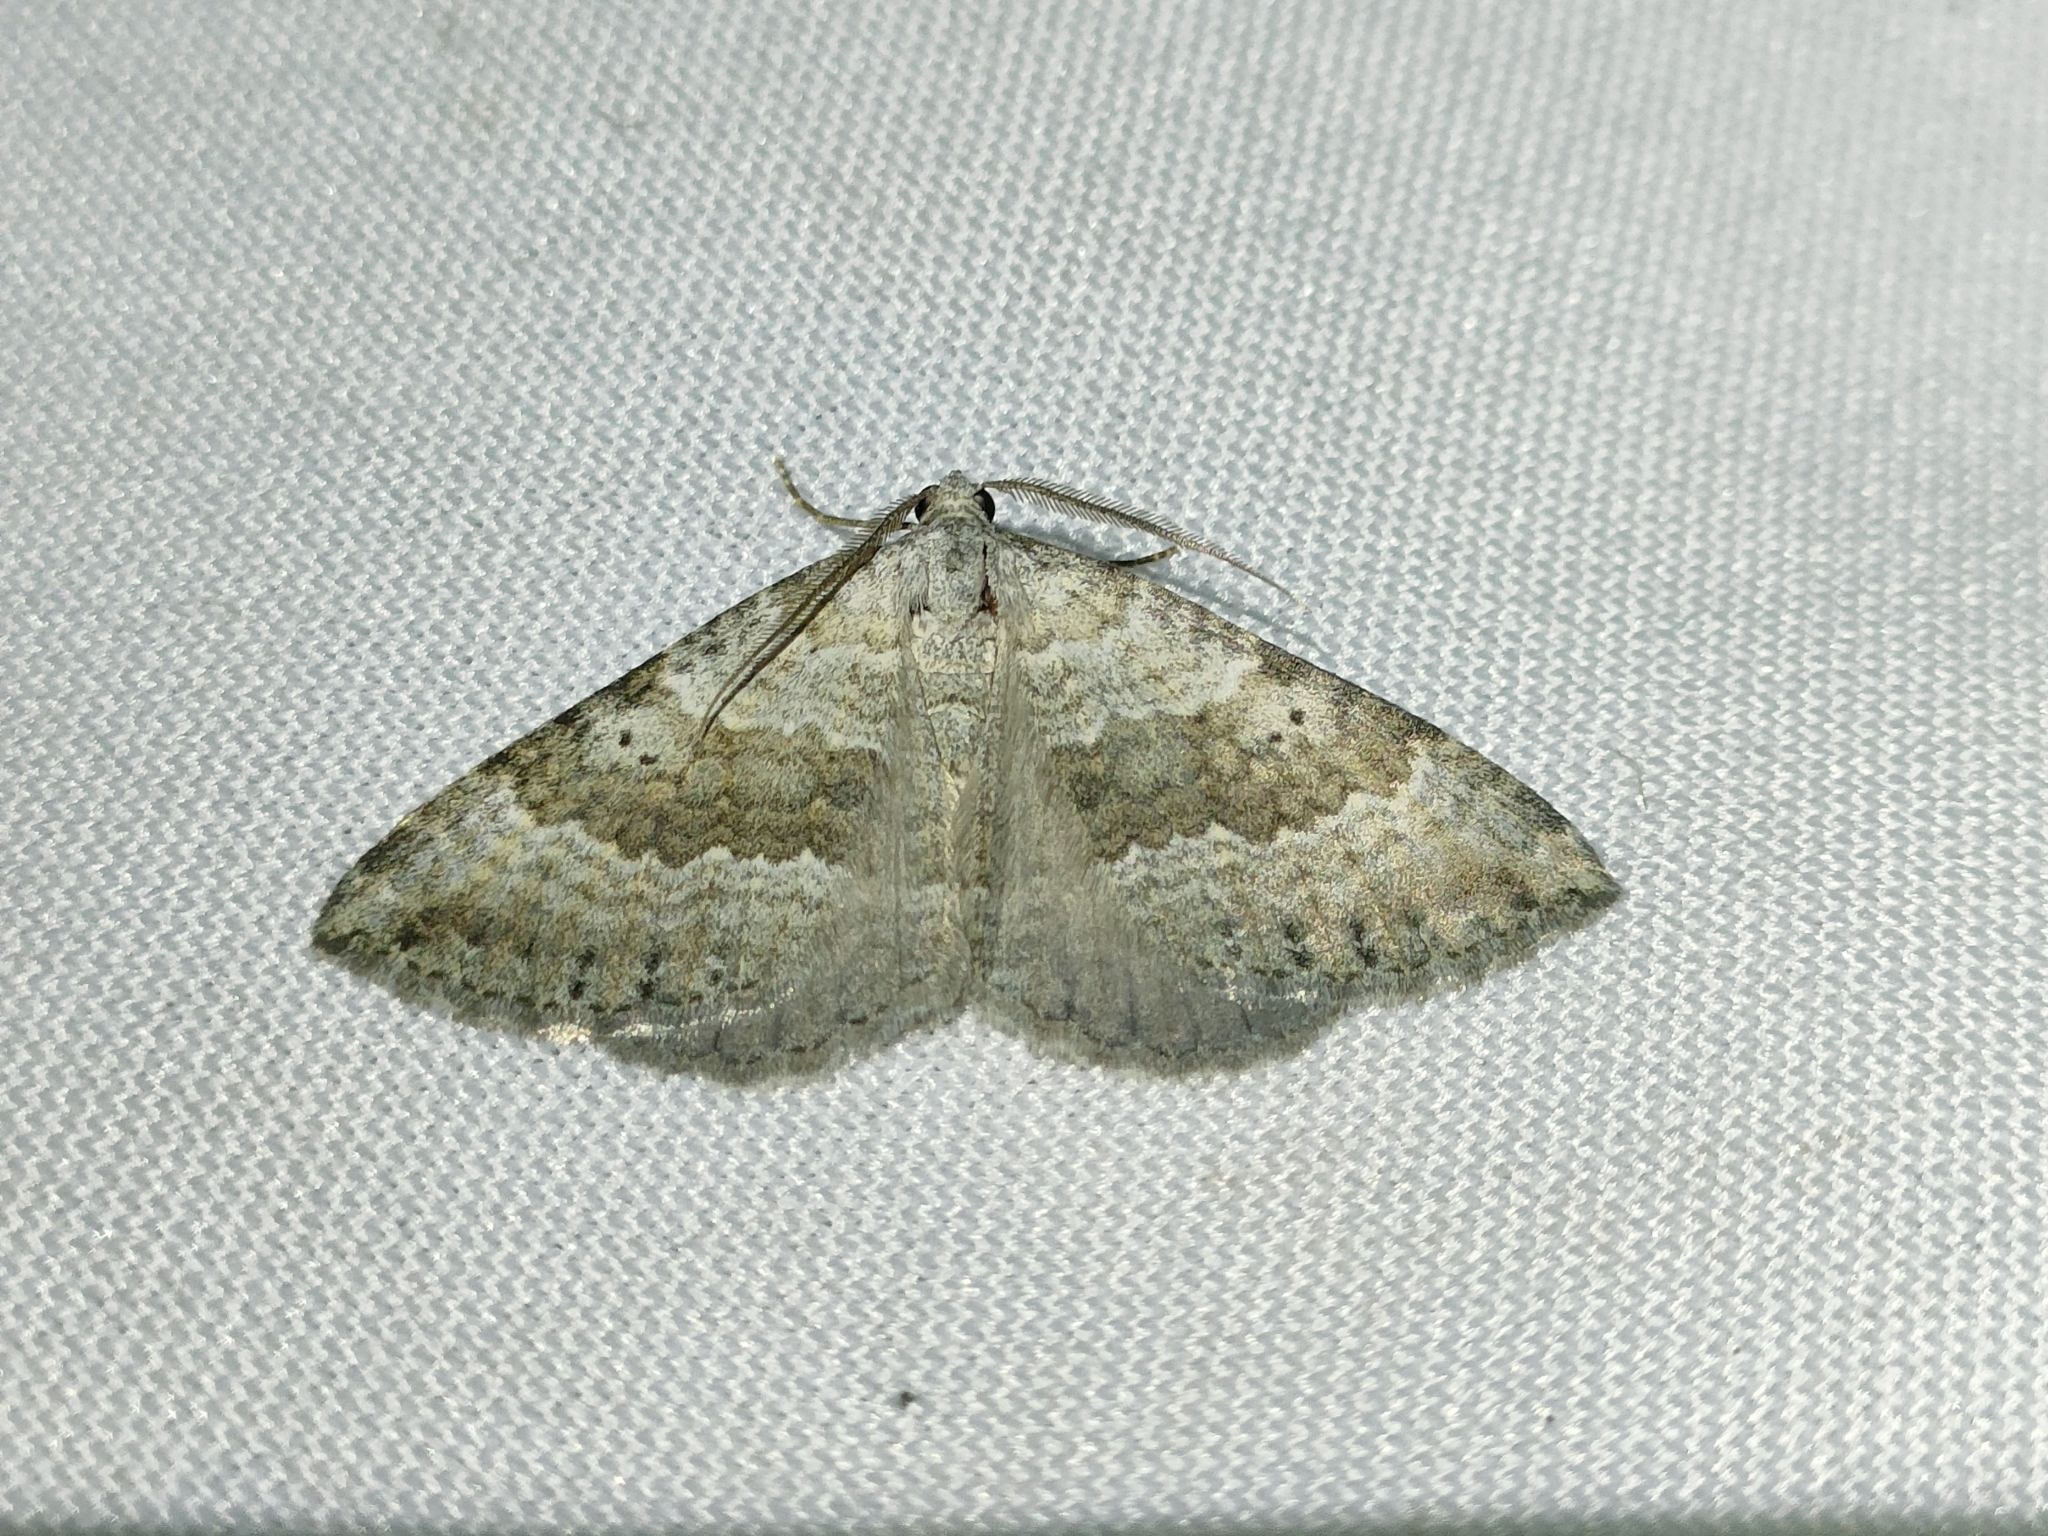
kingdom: Animalia
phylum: Arthropoda
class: Insecta
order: Lepidoptera
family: Geometridae
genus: Scotopteryx
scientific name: Scotopteryx bipunctaria
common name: Chalk carpet
